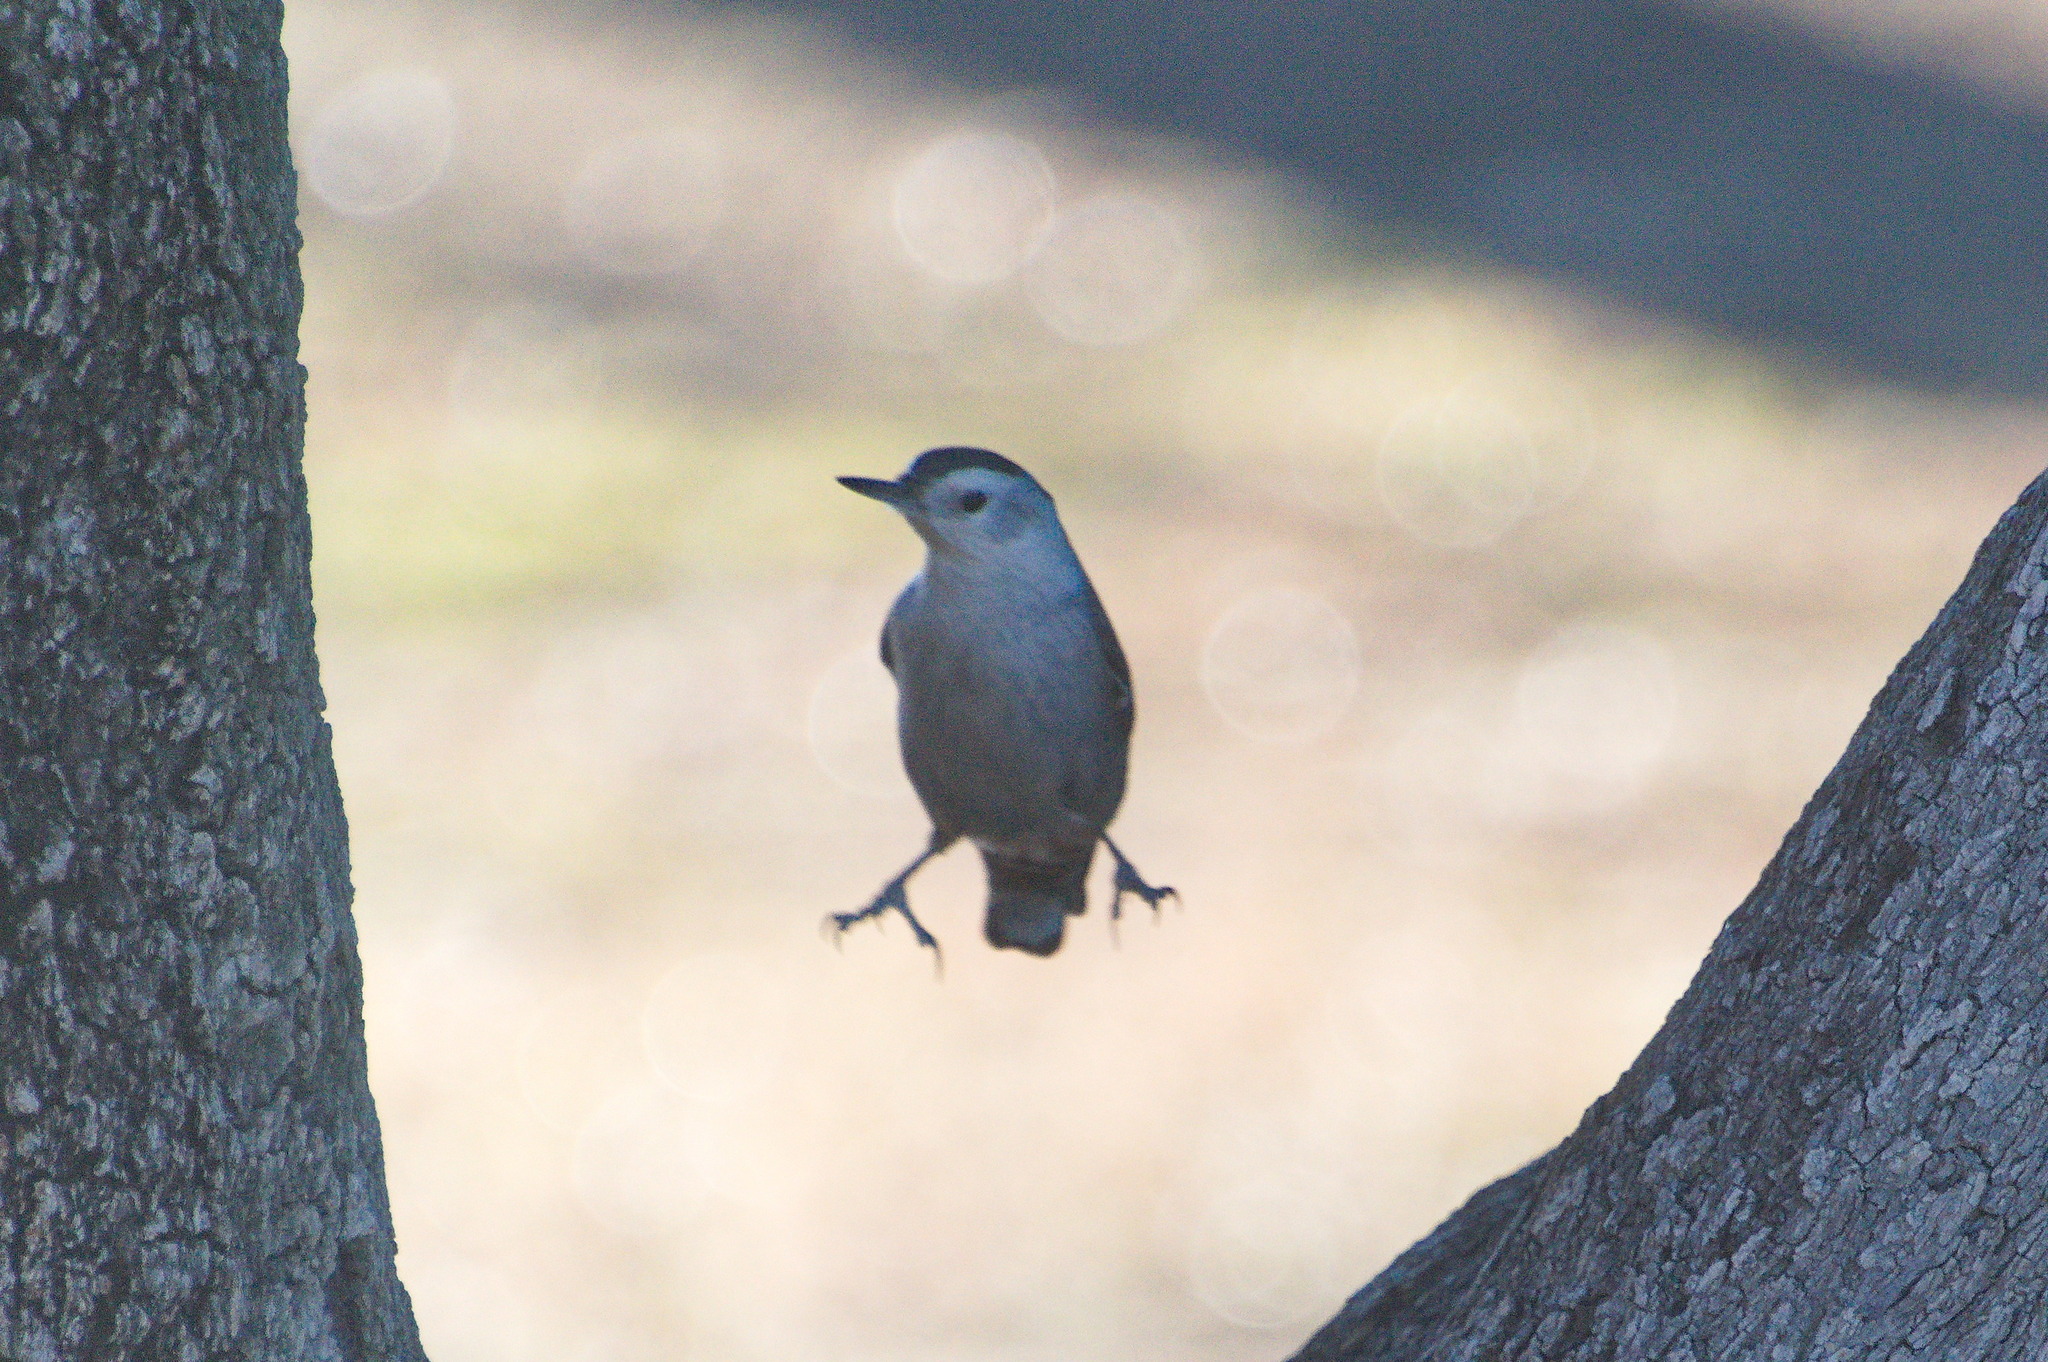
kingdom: Animalia
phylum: Chordata
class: Aves
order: Passeriformes
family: Sittidae
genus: Sitta
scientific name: Sitta carolinensis
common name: White-breasted nuthatch
